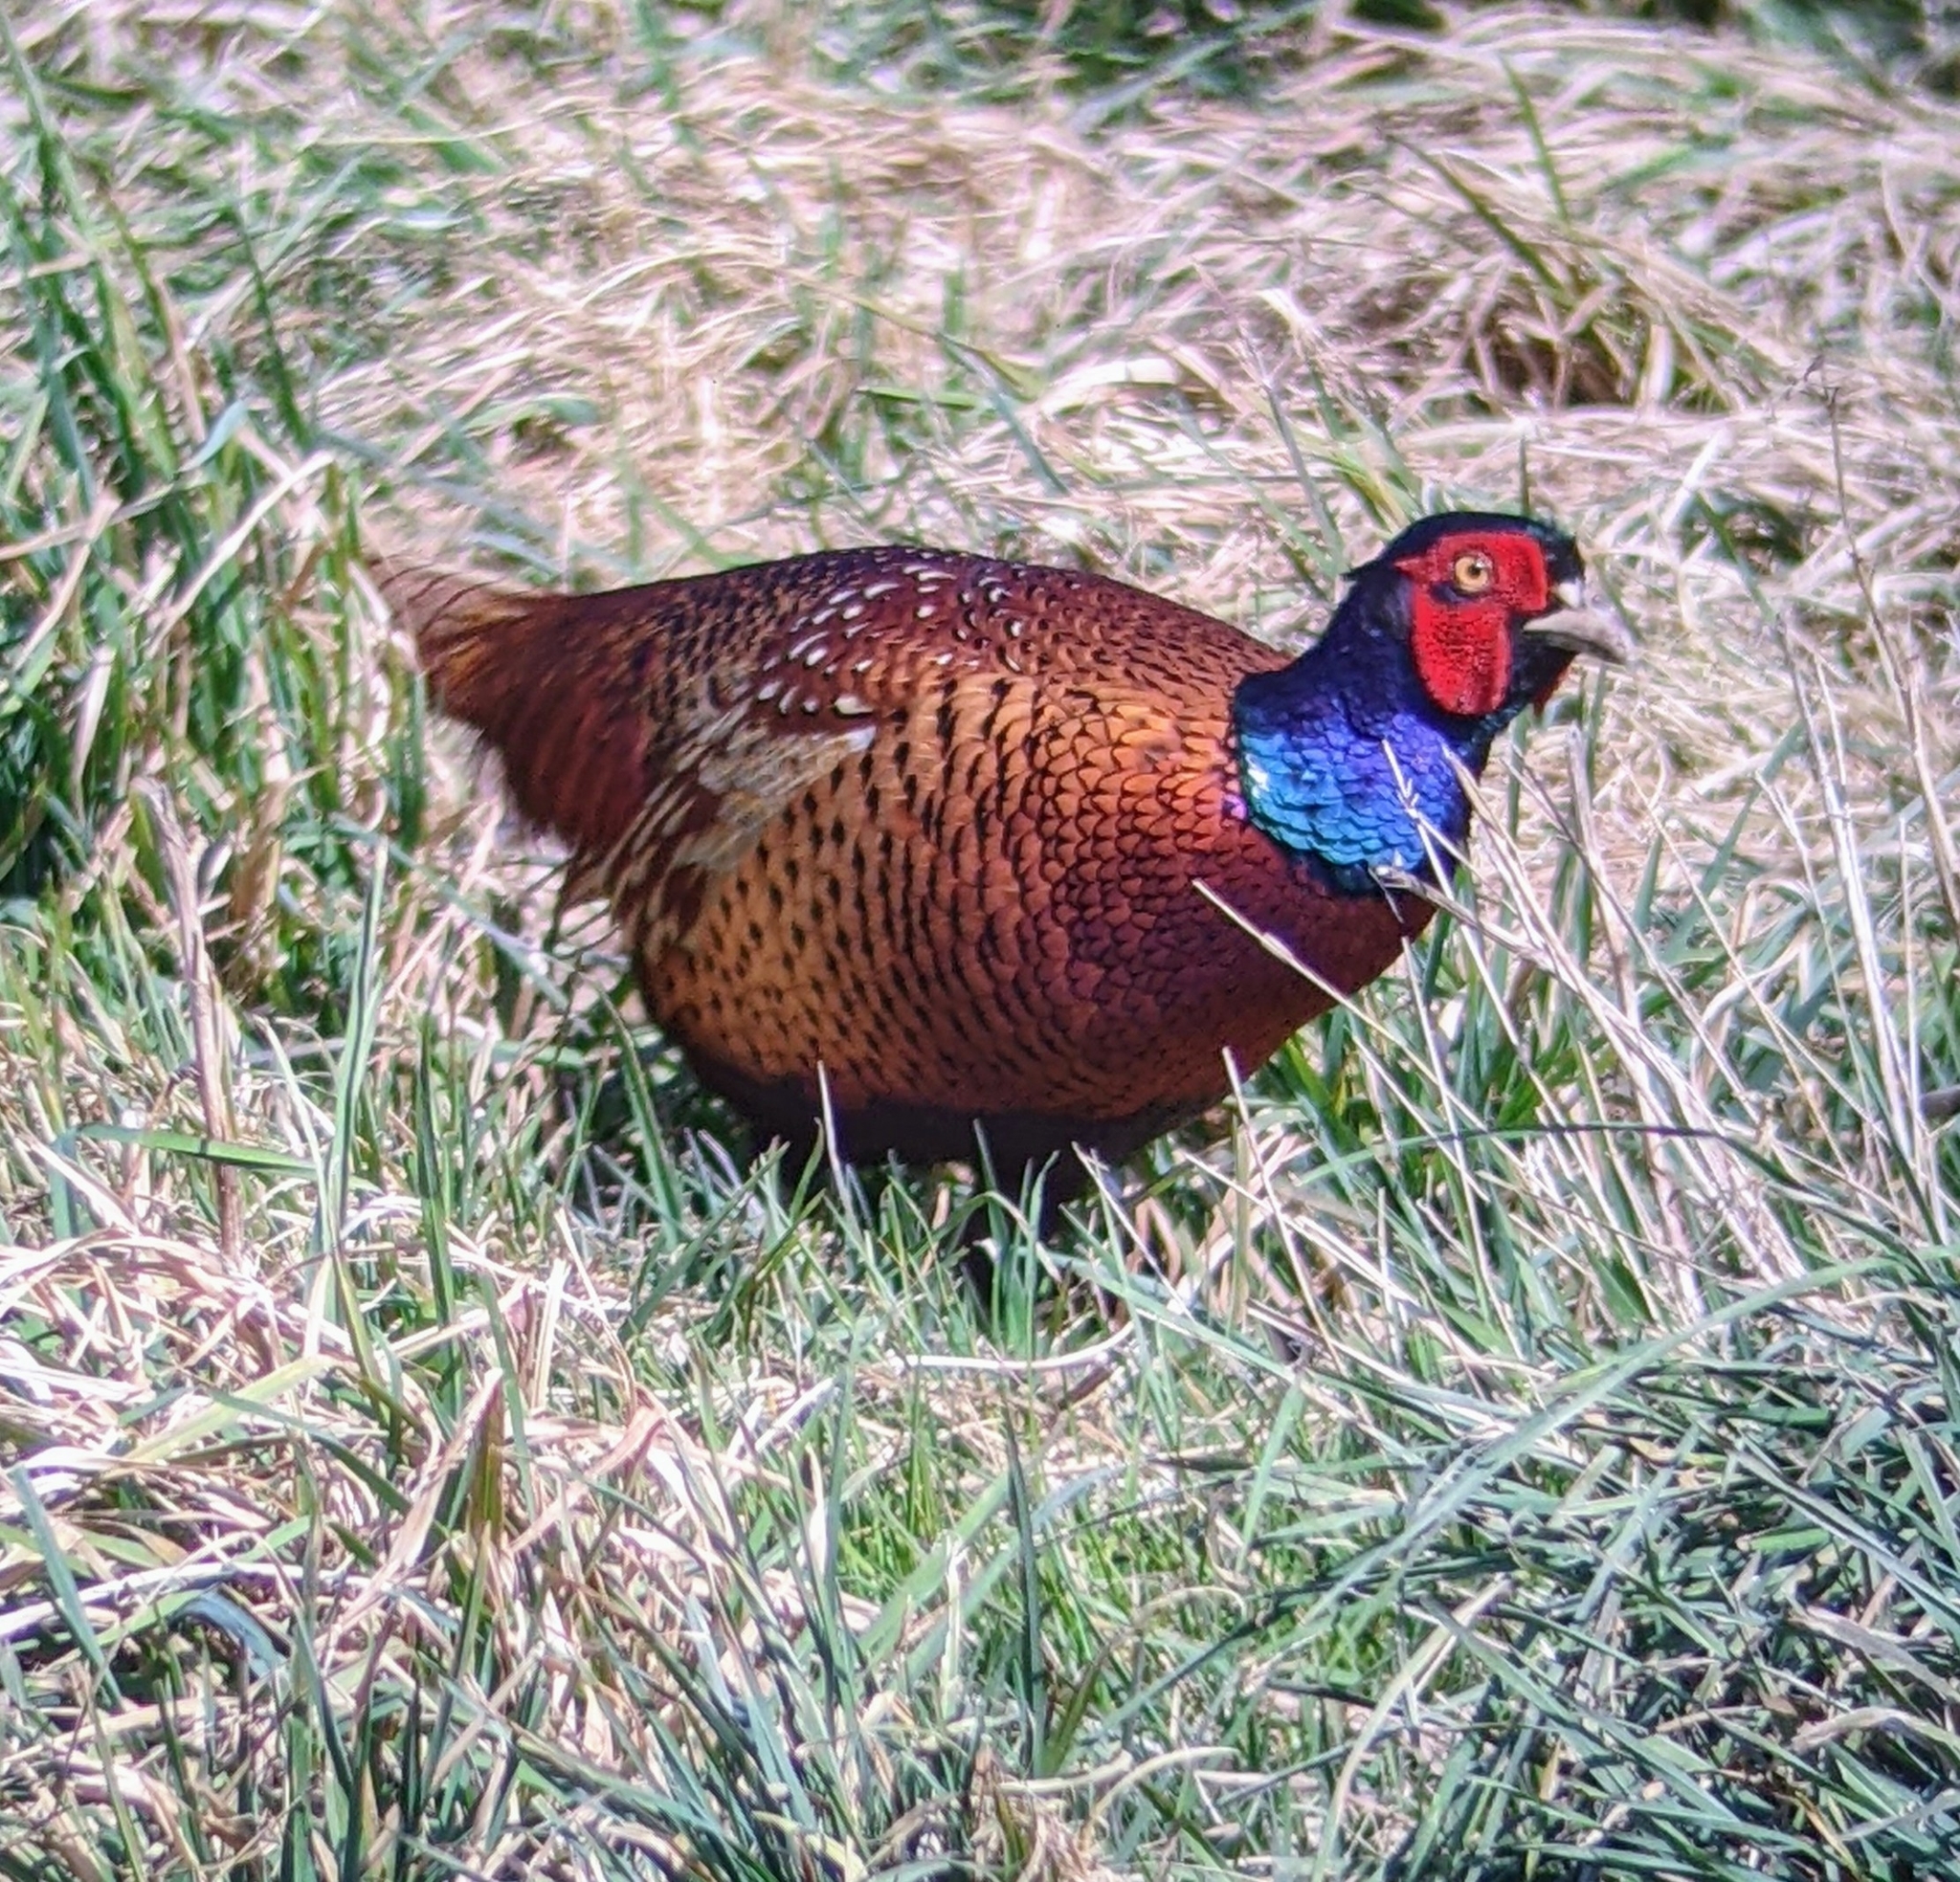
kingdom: Animalia
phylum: Chordata
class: Aves
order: Galliformes
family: Phasianidae
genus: Phasianus
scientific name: Phasianus colchicus
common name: Common pheasant
